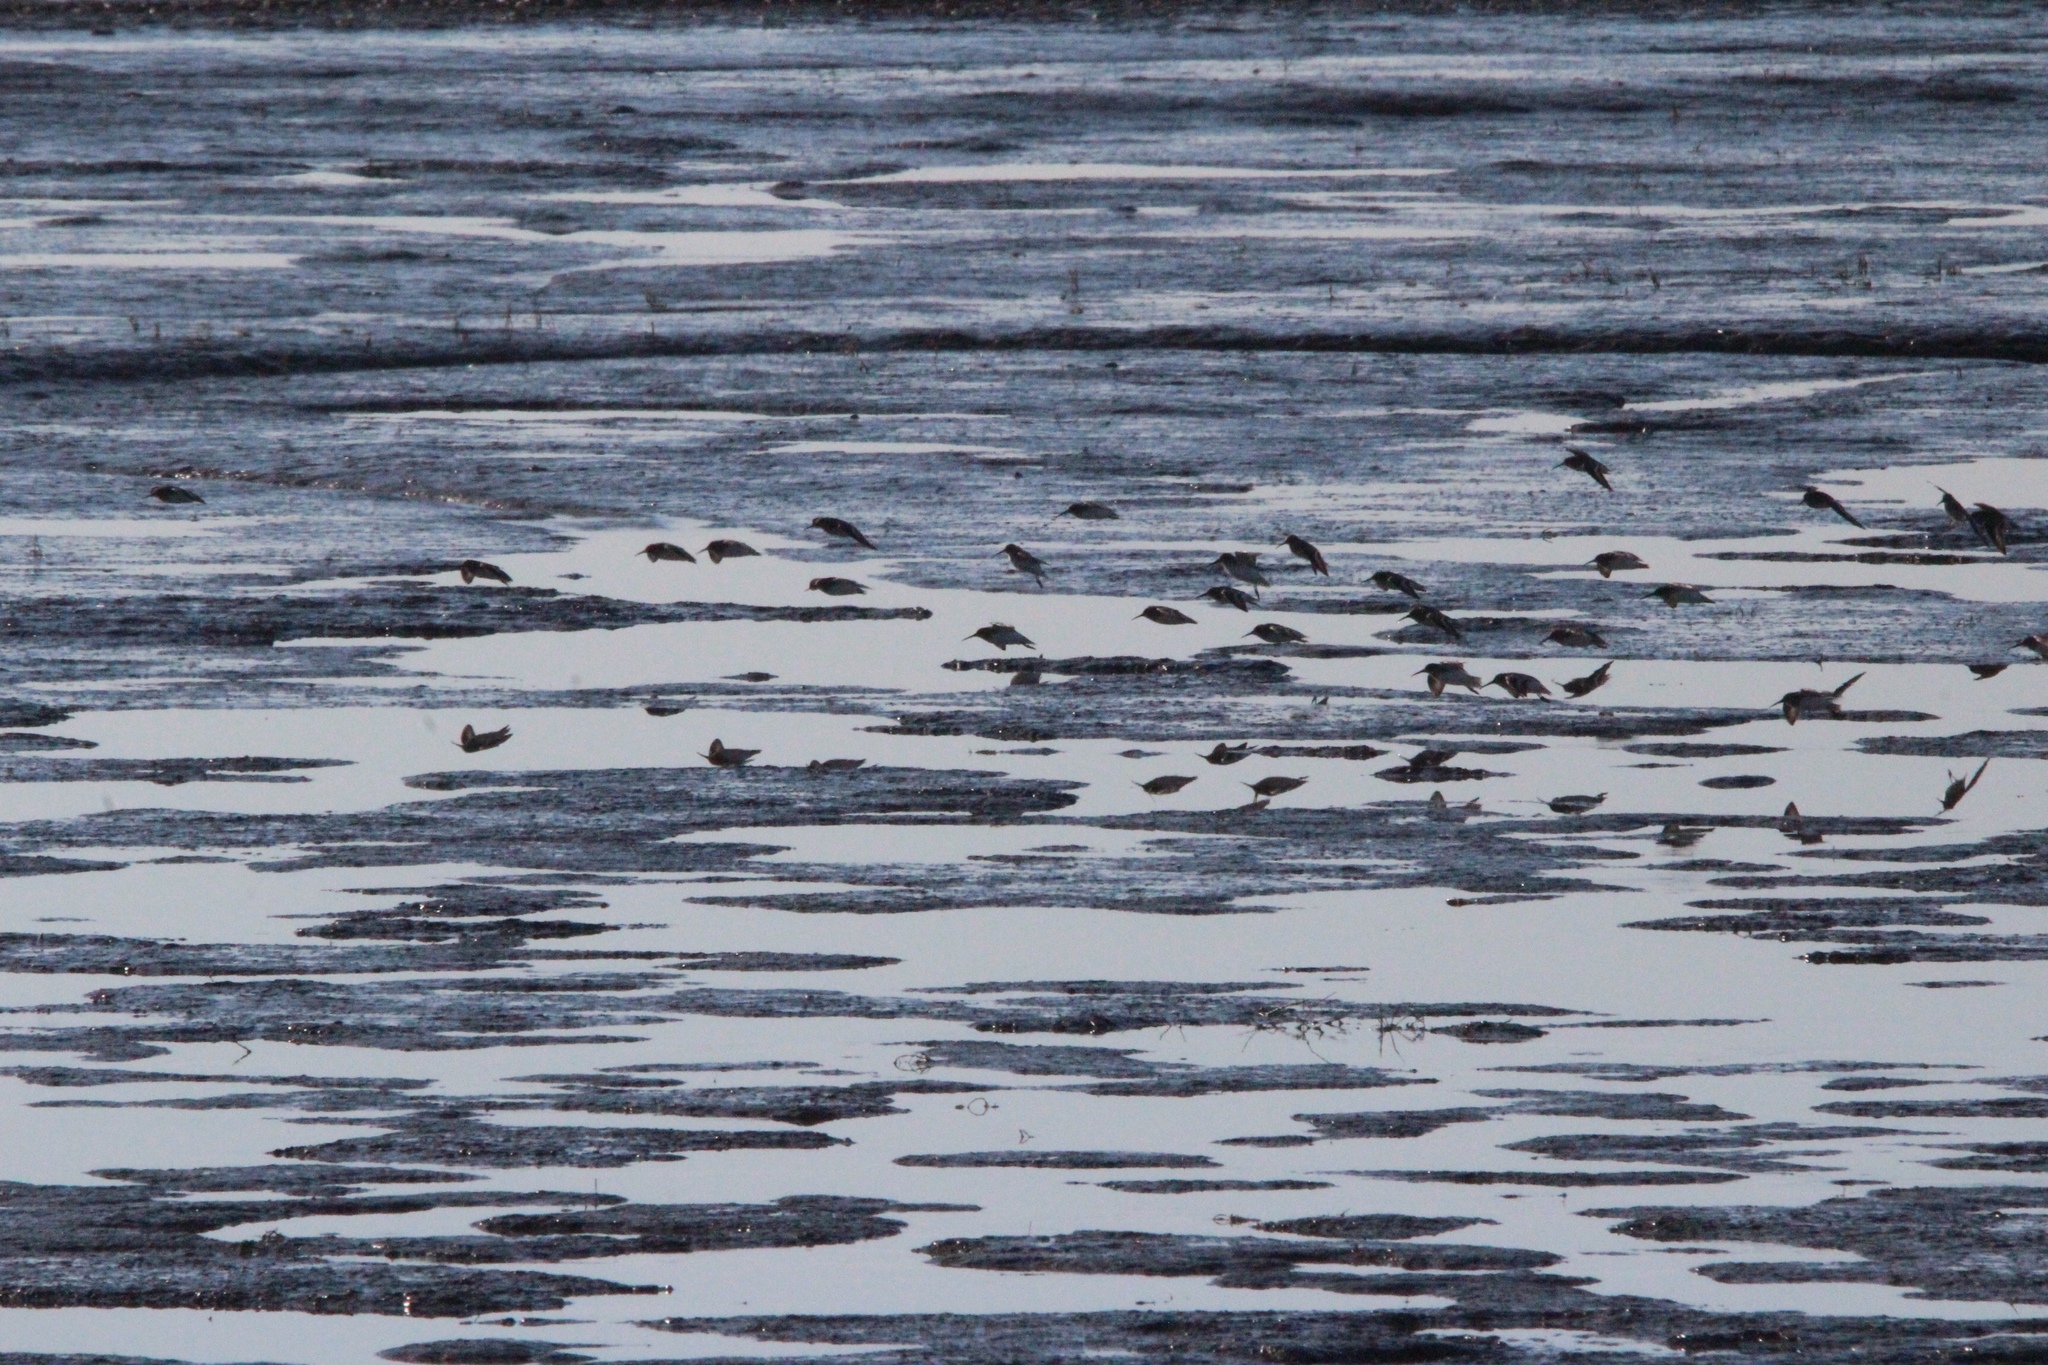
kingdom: Animalia
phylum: Chordata
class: Aves
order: Charadriiformes
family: Scolopacidae
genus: Calidris
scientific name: Calidris alpina
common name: Dunlin
